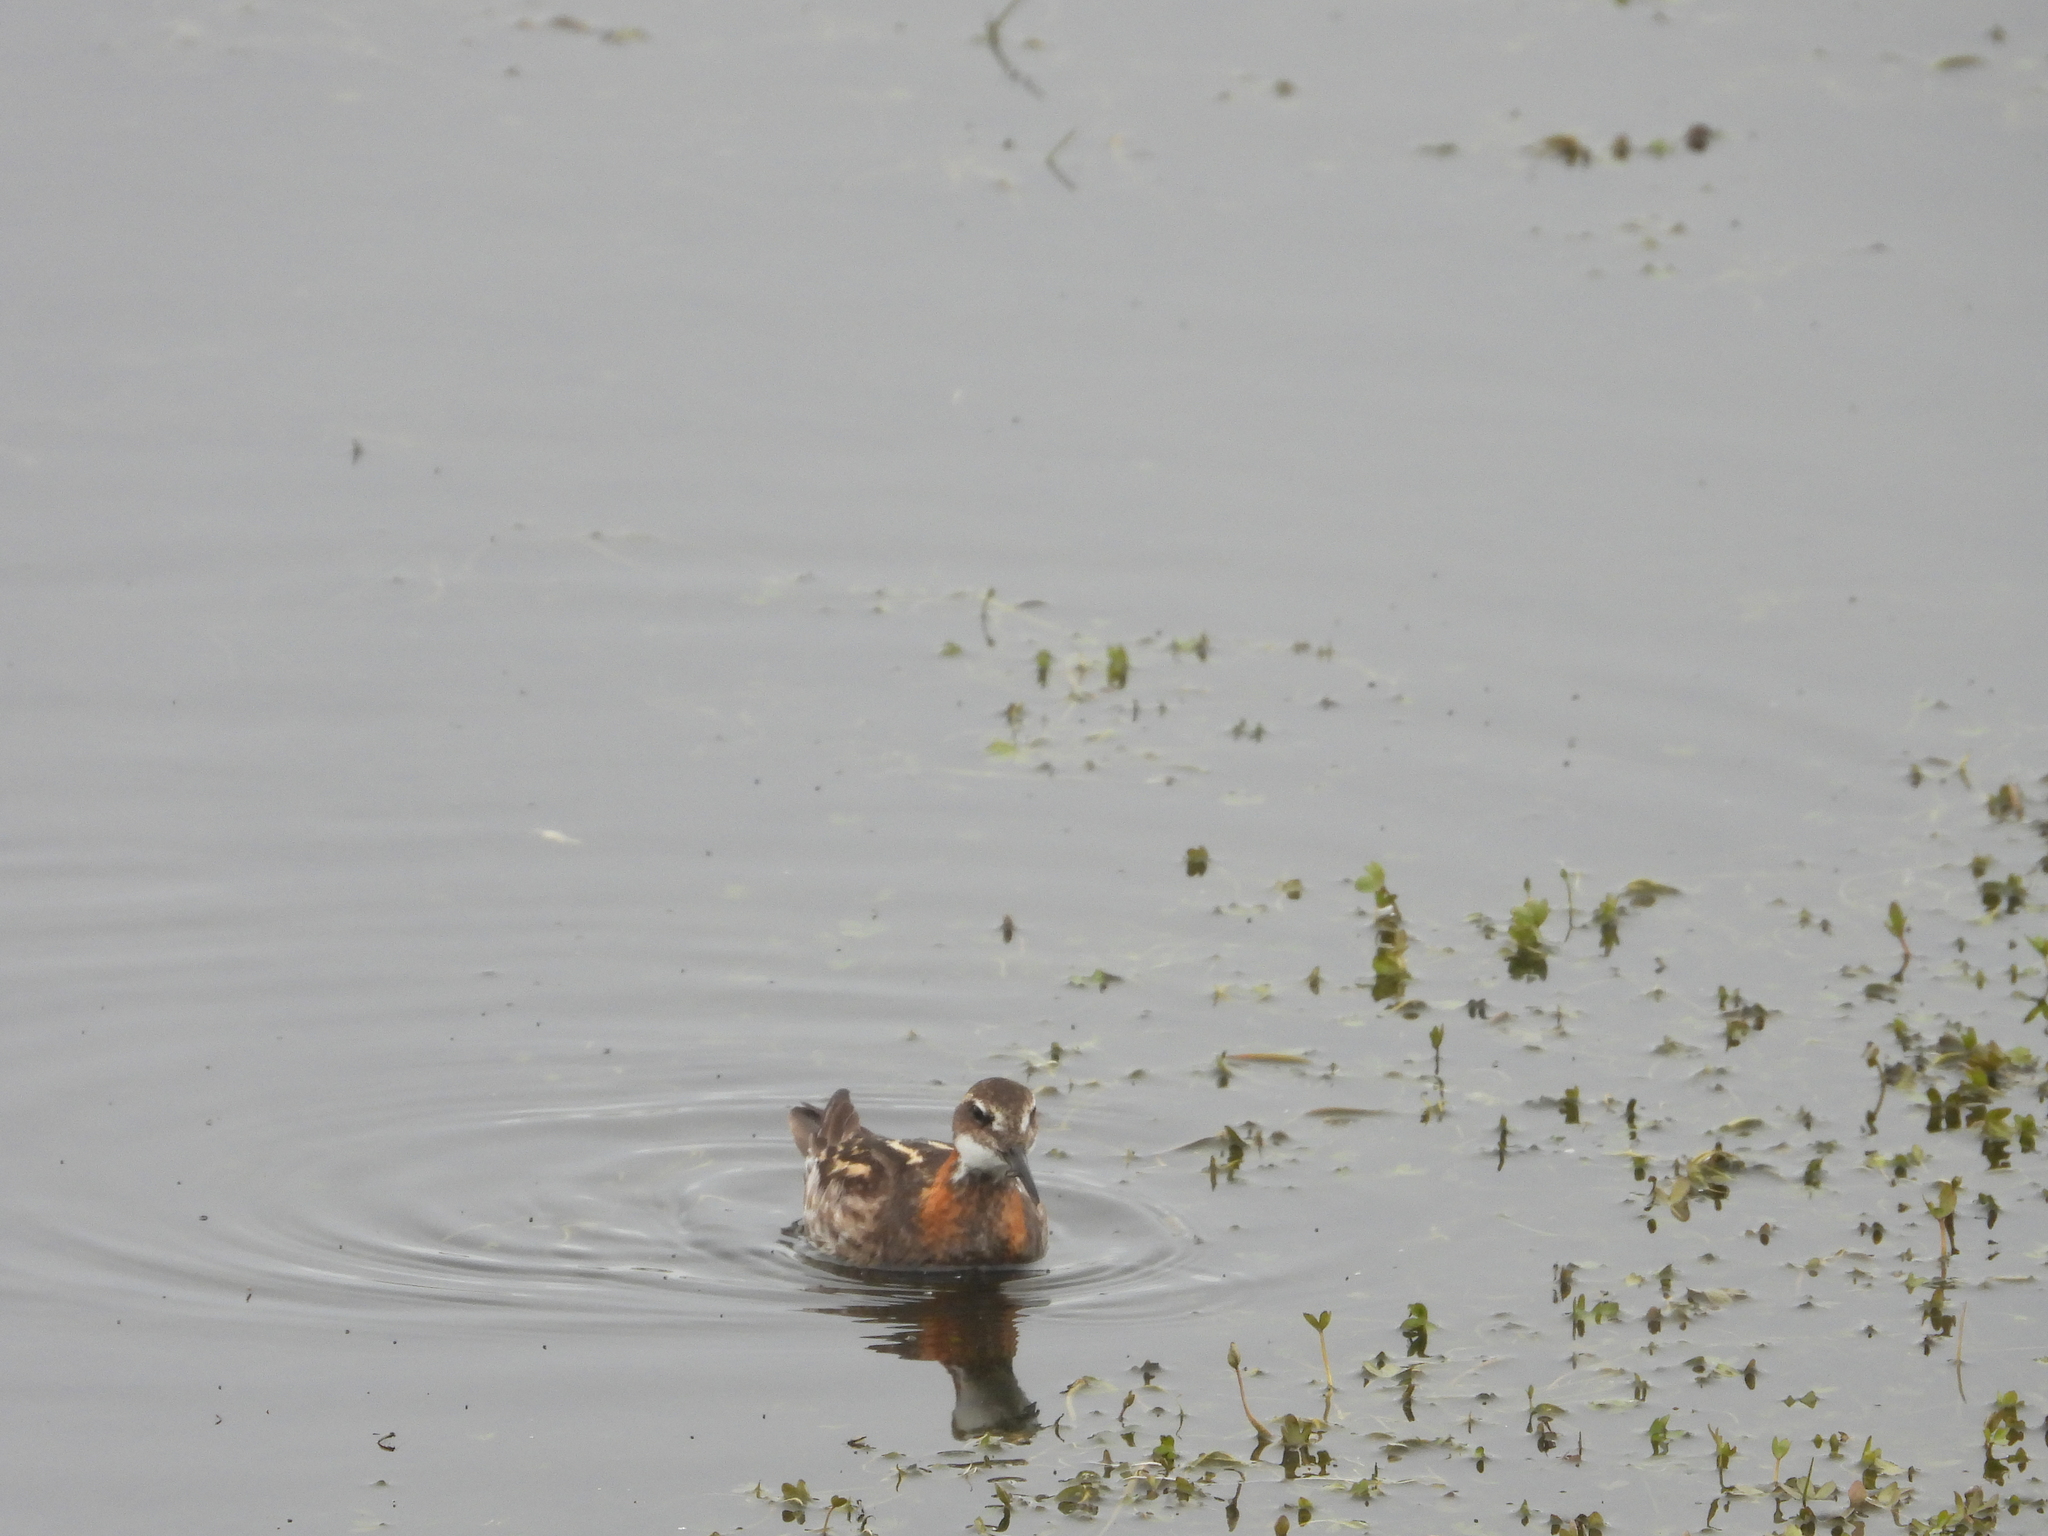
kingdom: Animalia
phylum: Chordata
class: Aves
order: Charadriiformes
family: Scolopacidae
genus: Phalaropus
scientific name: Phalaropus lobatus
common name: Red-necked phalarope
